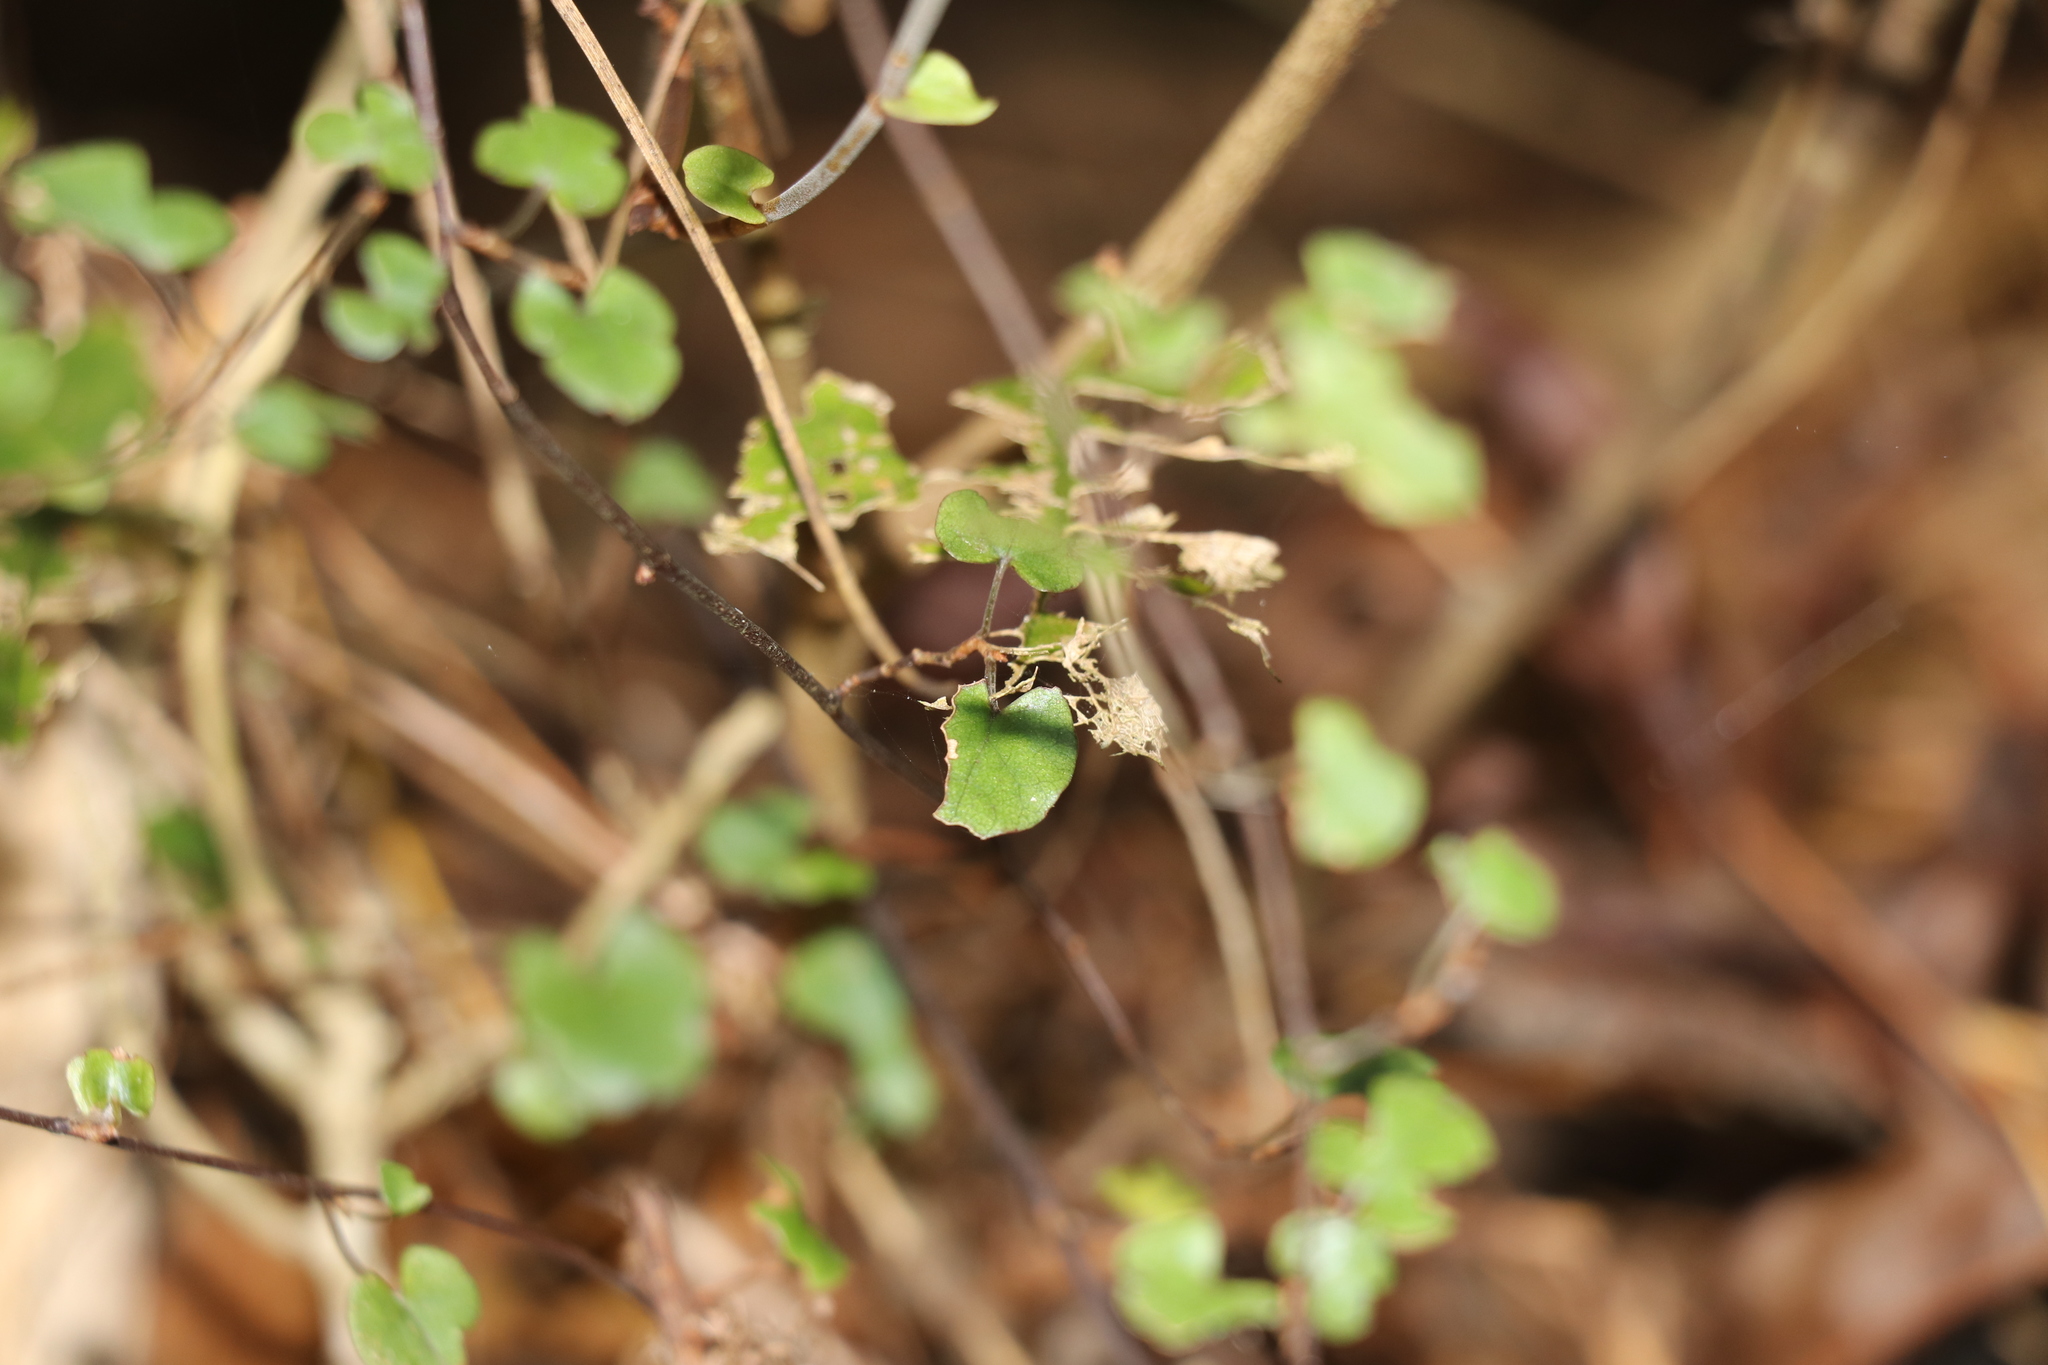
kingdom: Plantae
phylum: Tracheophyta
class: Magnoliopsida
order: Caryophyllales
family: Polygonaceae
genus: Muehlenbeckia
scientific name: Muehlenbeckia australis
